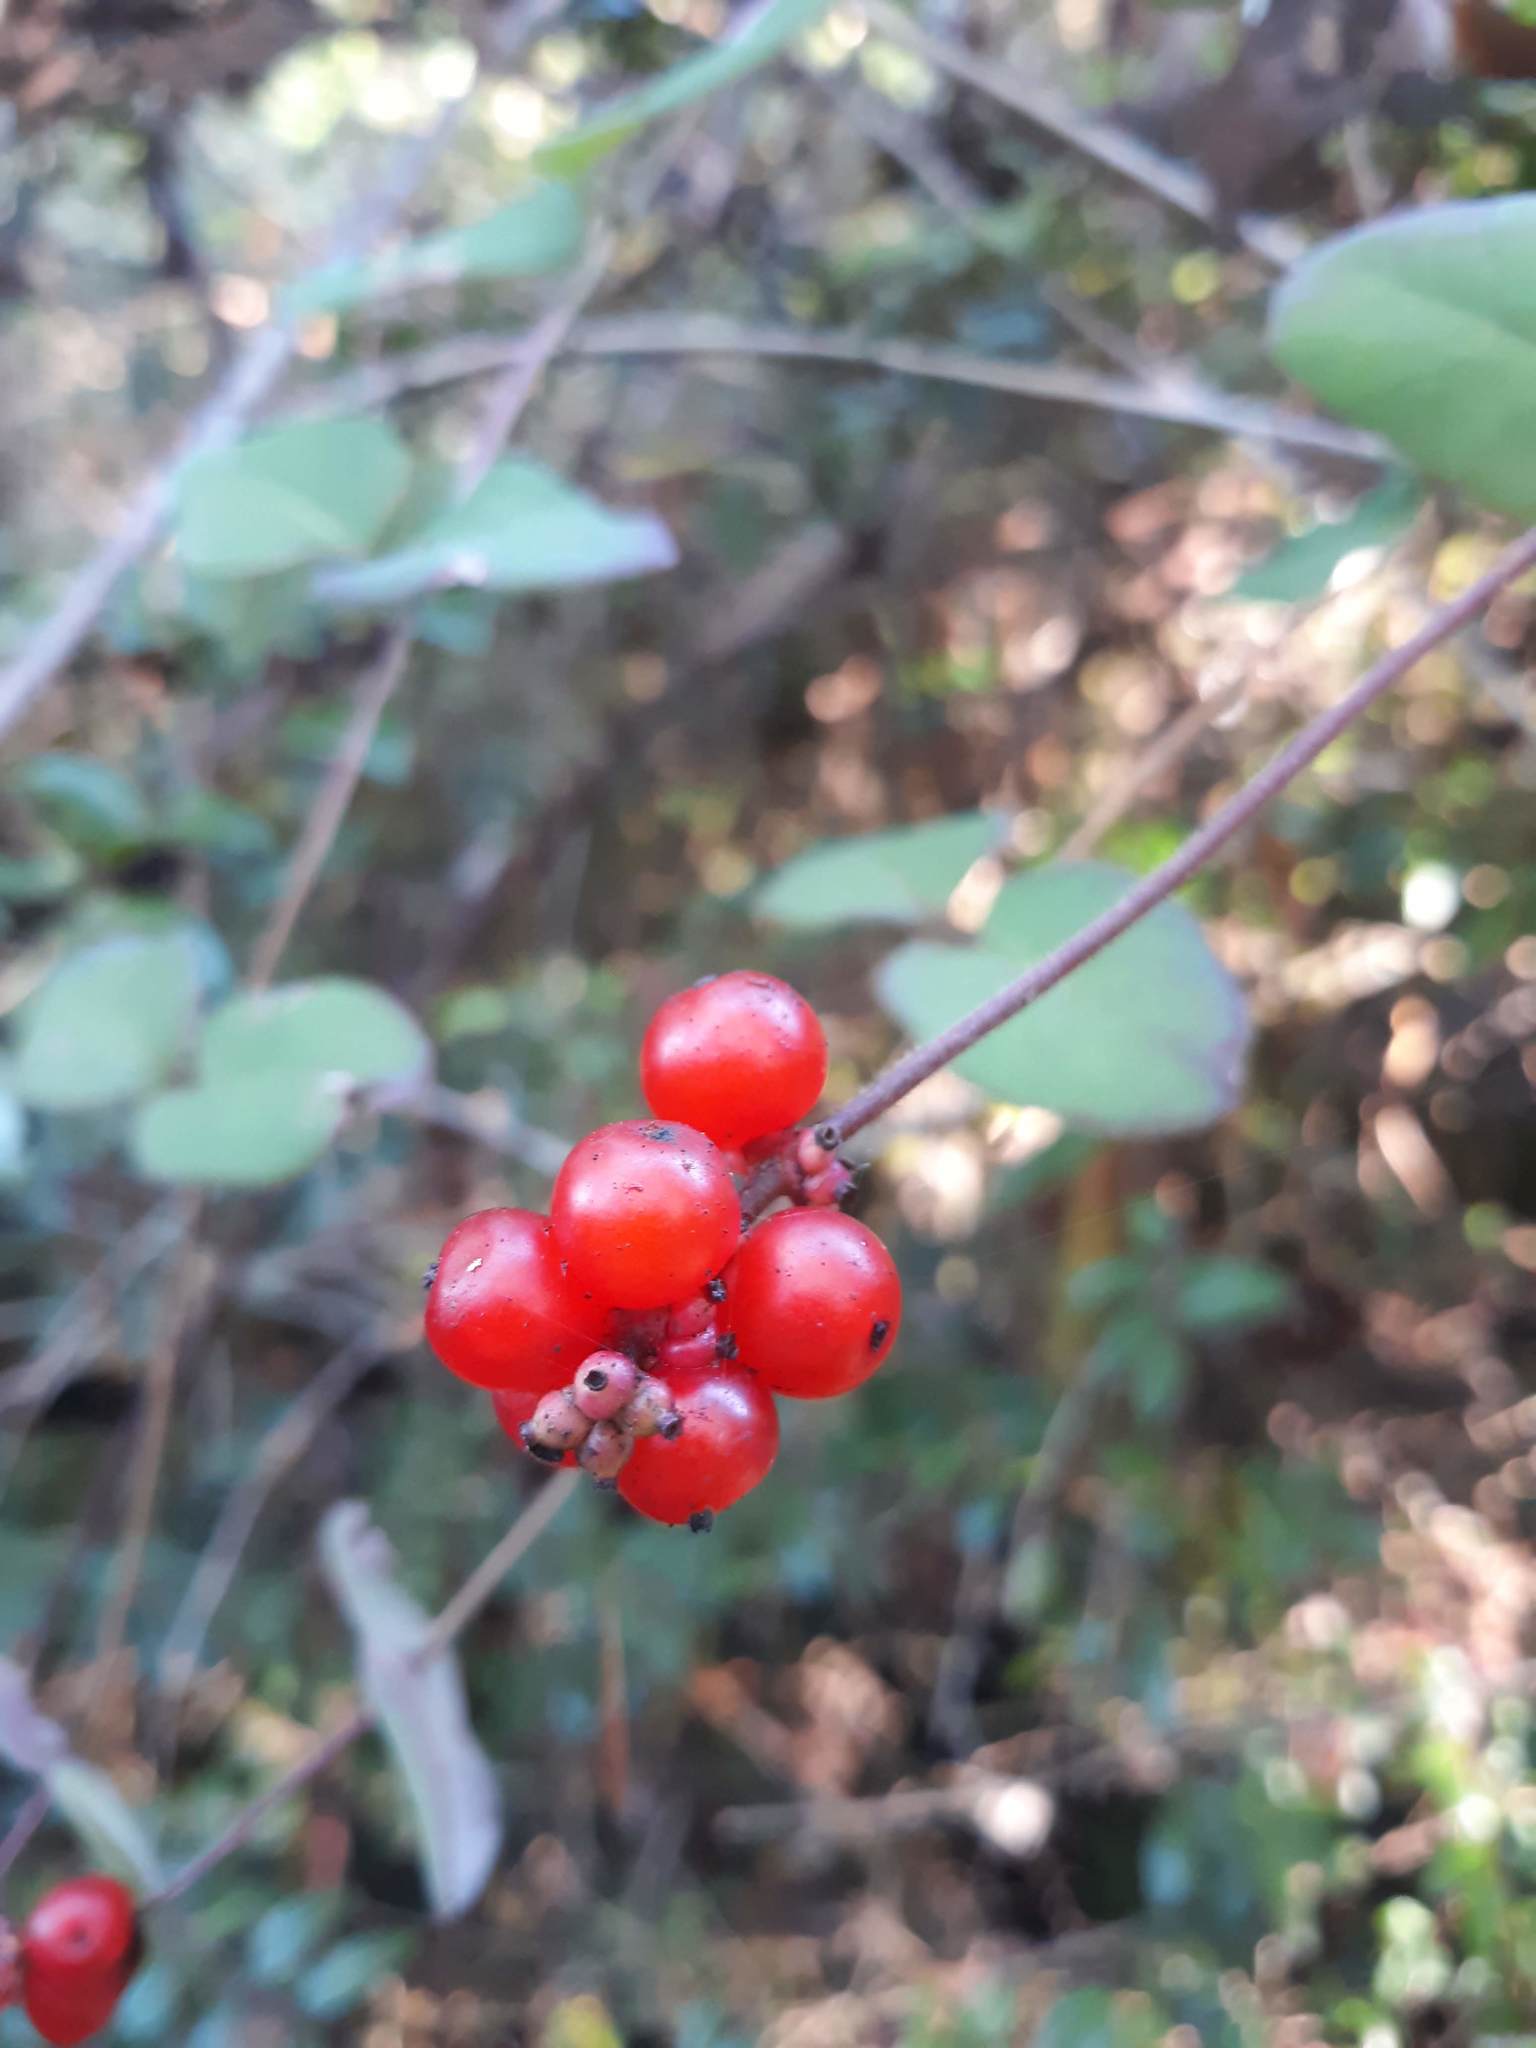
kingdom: Plantae
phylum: Tracheophyta
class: Magnoliopsida
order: Dipsacales
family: Caprifoliaceae
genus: Lonicera
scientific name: Lonicera hispidula
